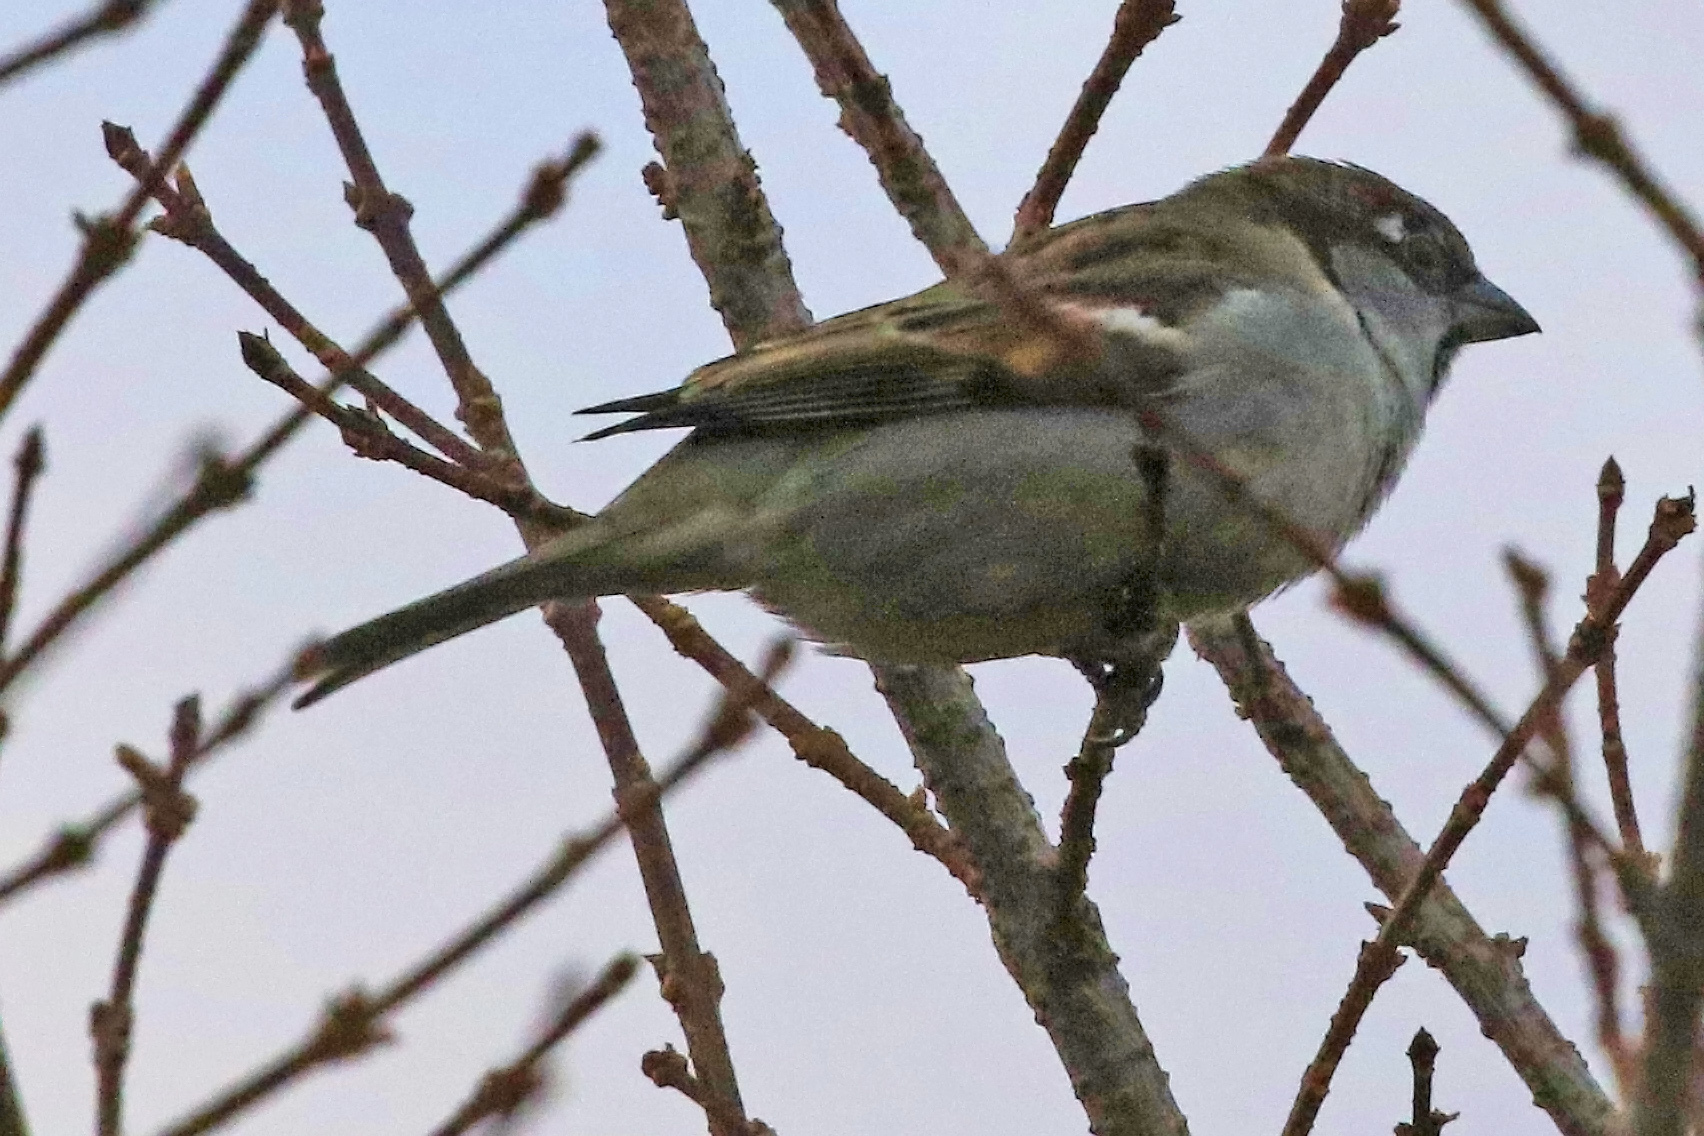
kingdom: Animalia
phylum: Chordata
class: Aves
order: Passeriformes
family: Passeridae
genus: Passer
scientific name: Passer domesticus
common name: House sparrow
